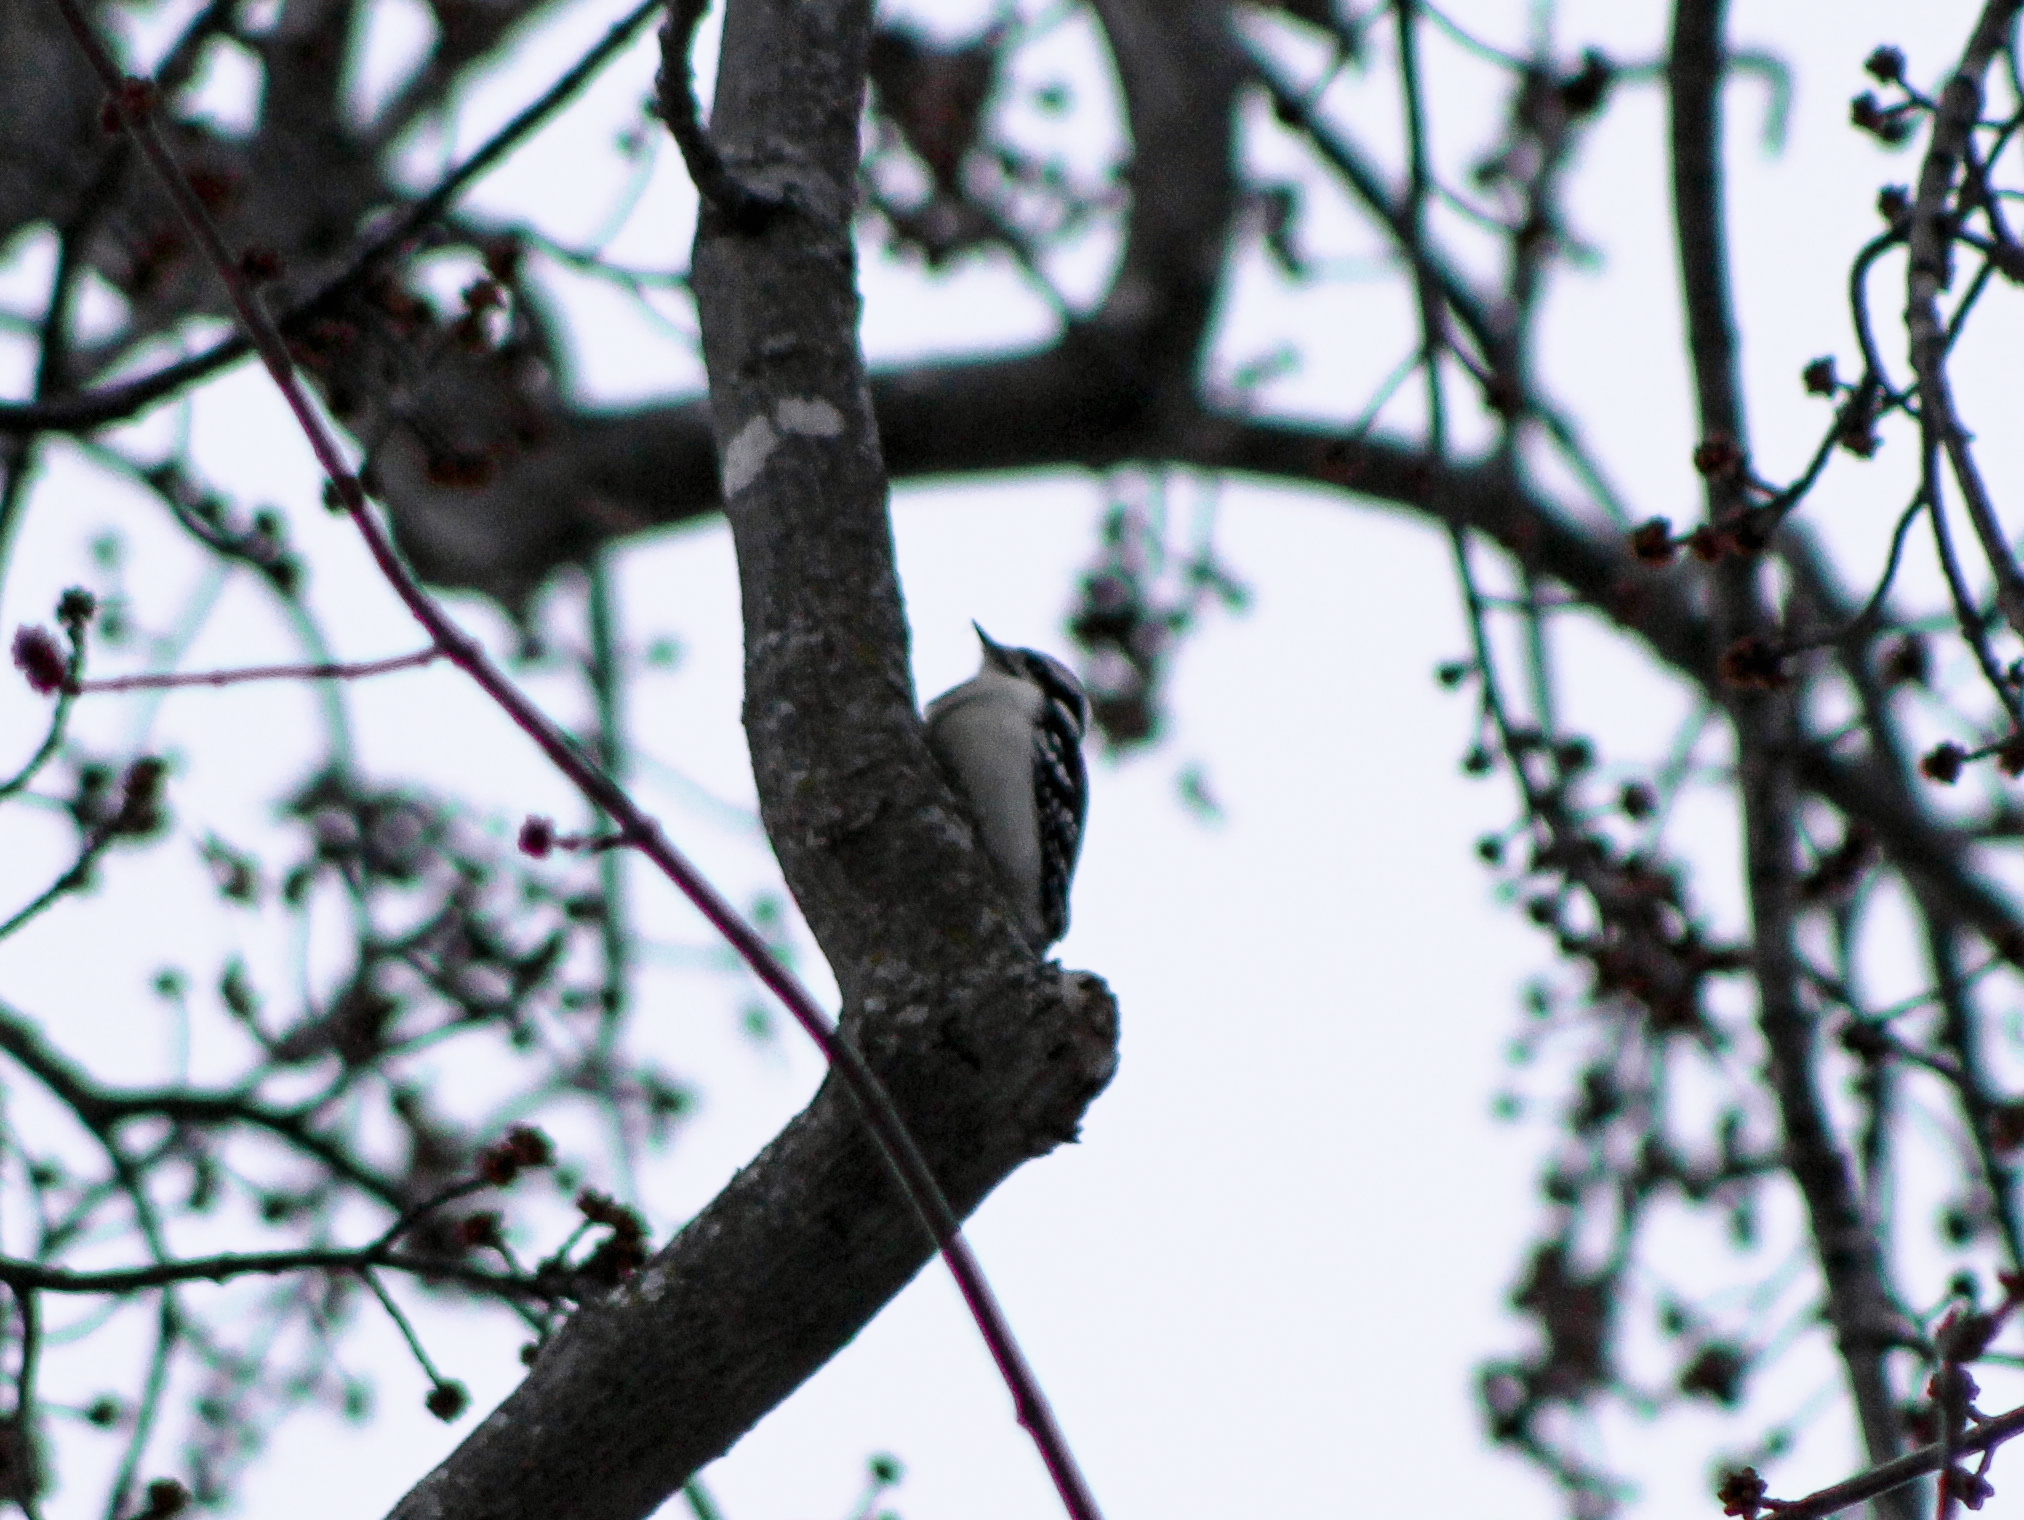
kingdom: Animalia
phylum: Chordata
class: Aves
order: Piciformes
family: Picidae
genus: Dryobates
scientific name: Dryobates pubescens
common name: Downy woodpecker
